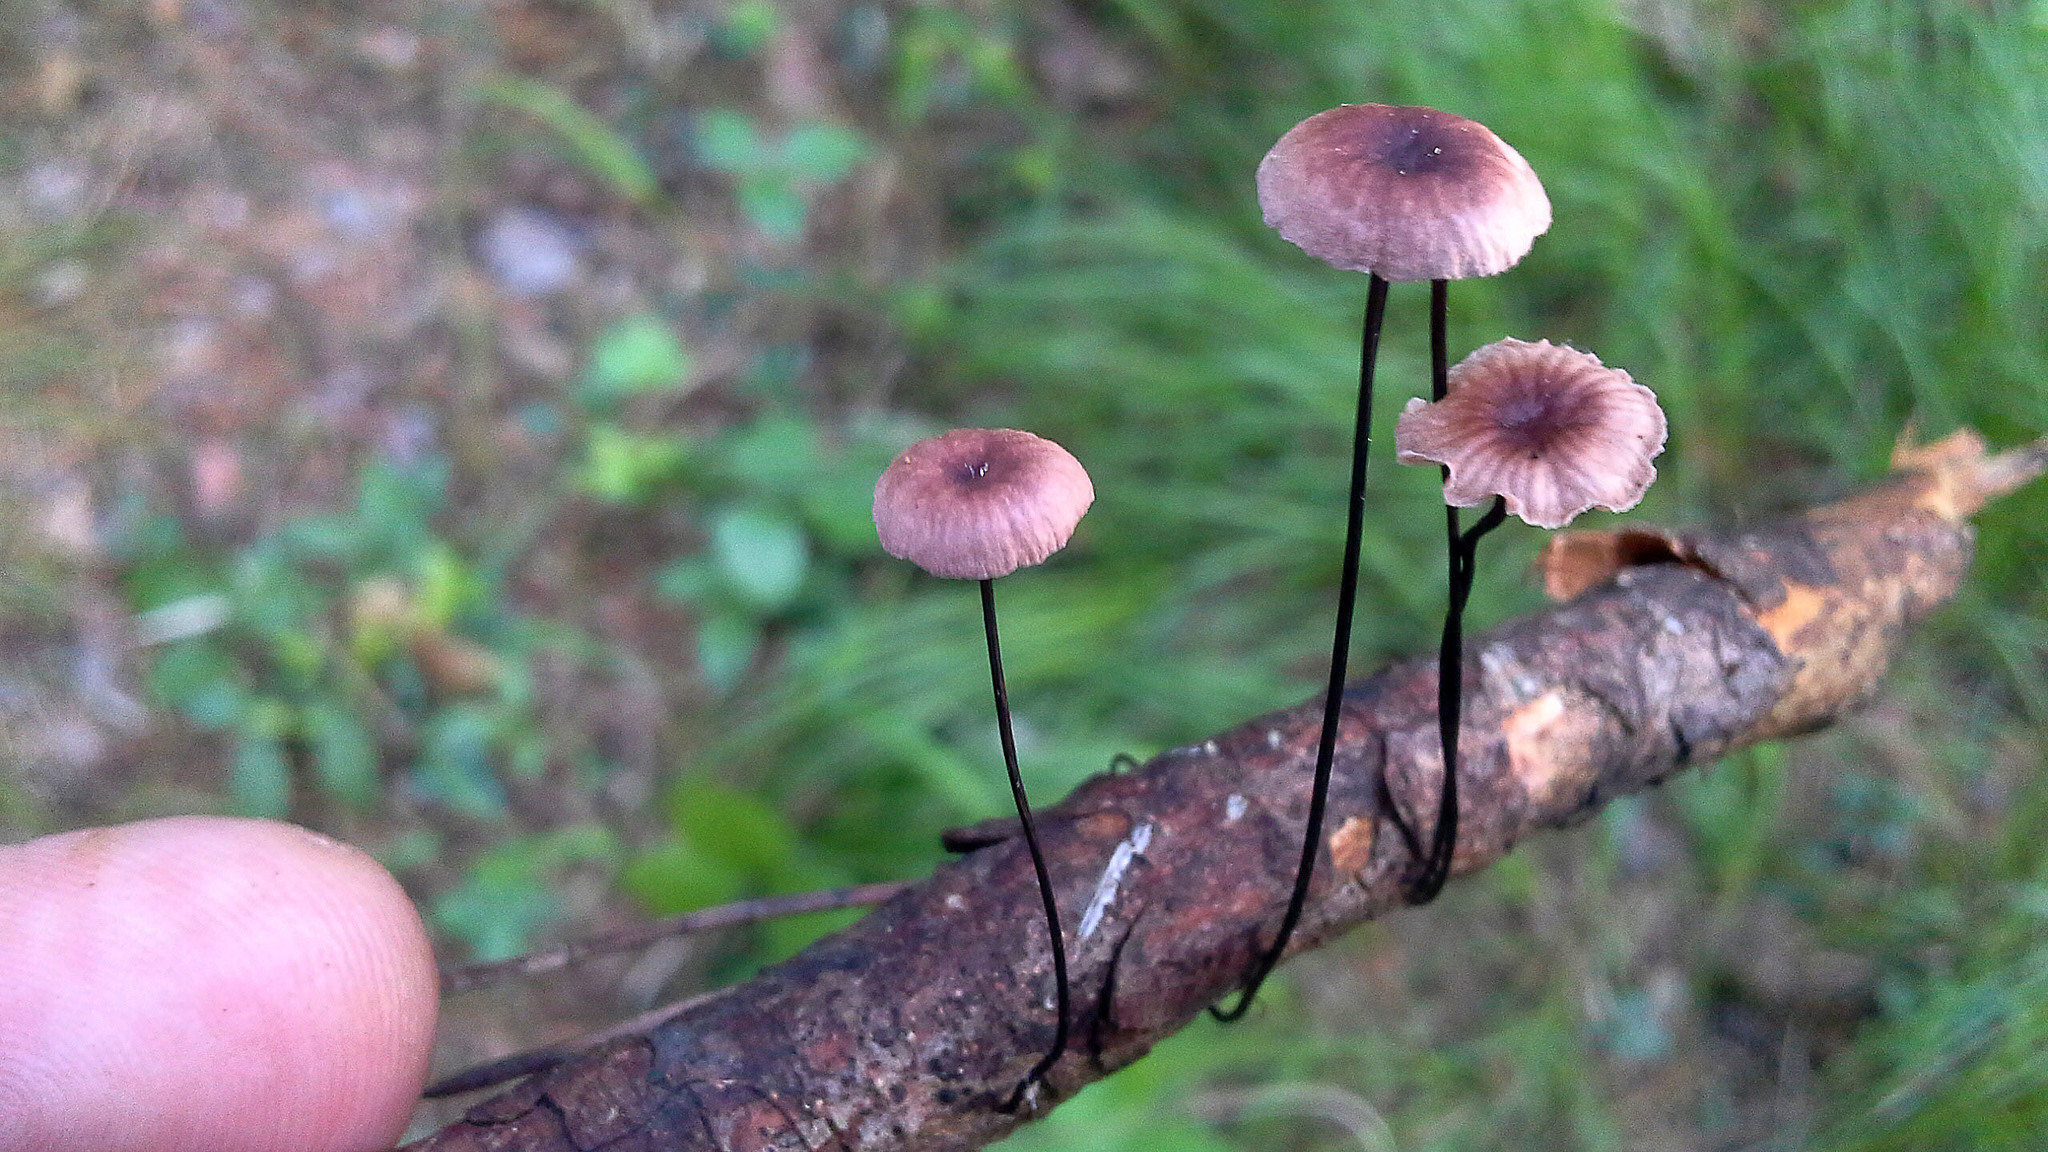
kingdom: Fungi
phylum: Basidiomycota
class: Agaricomycetes
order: Agaricales
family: Omphalotaceae
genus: Gymnopus
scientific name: Gymnopus androsaceus
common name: Horse-hair fungus
